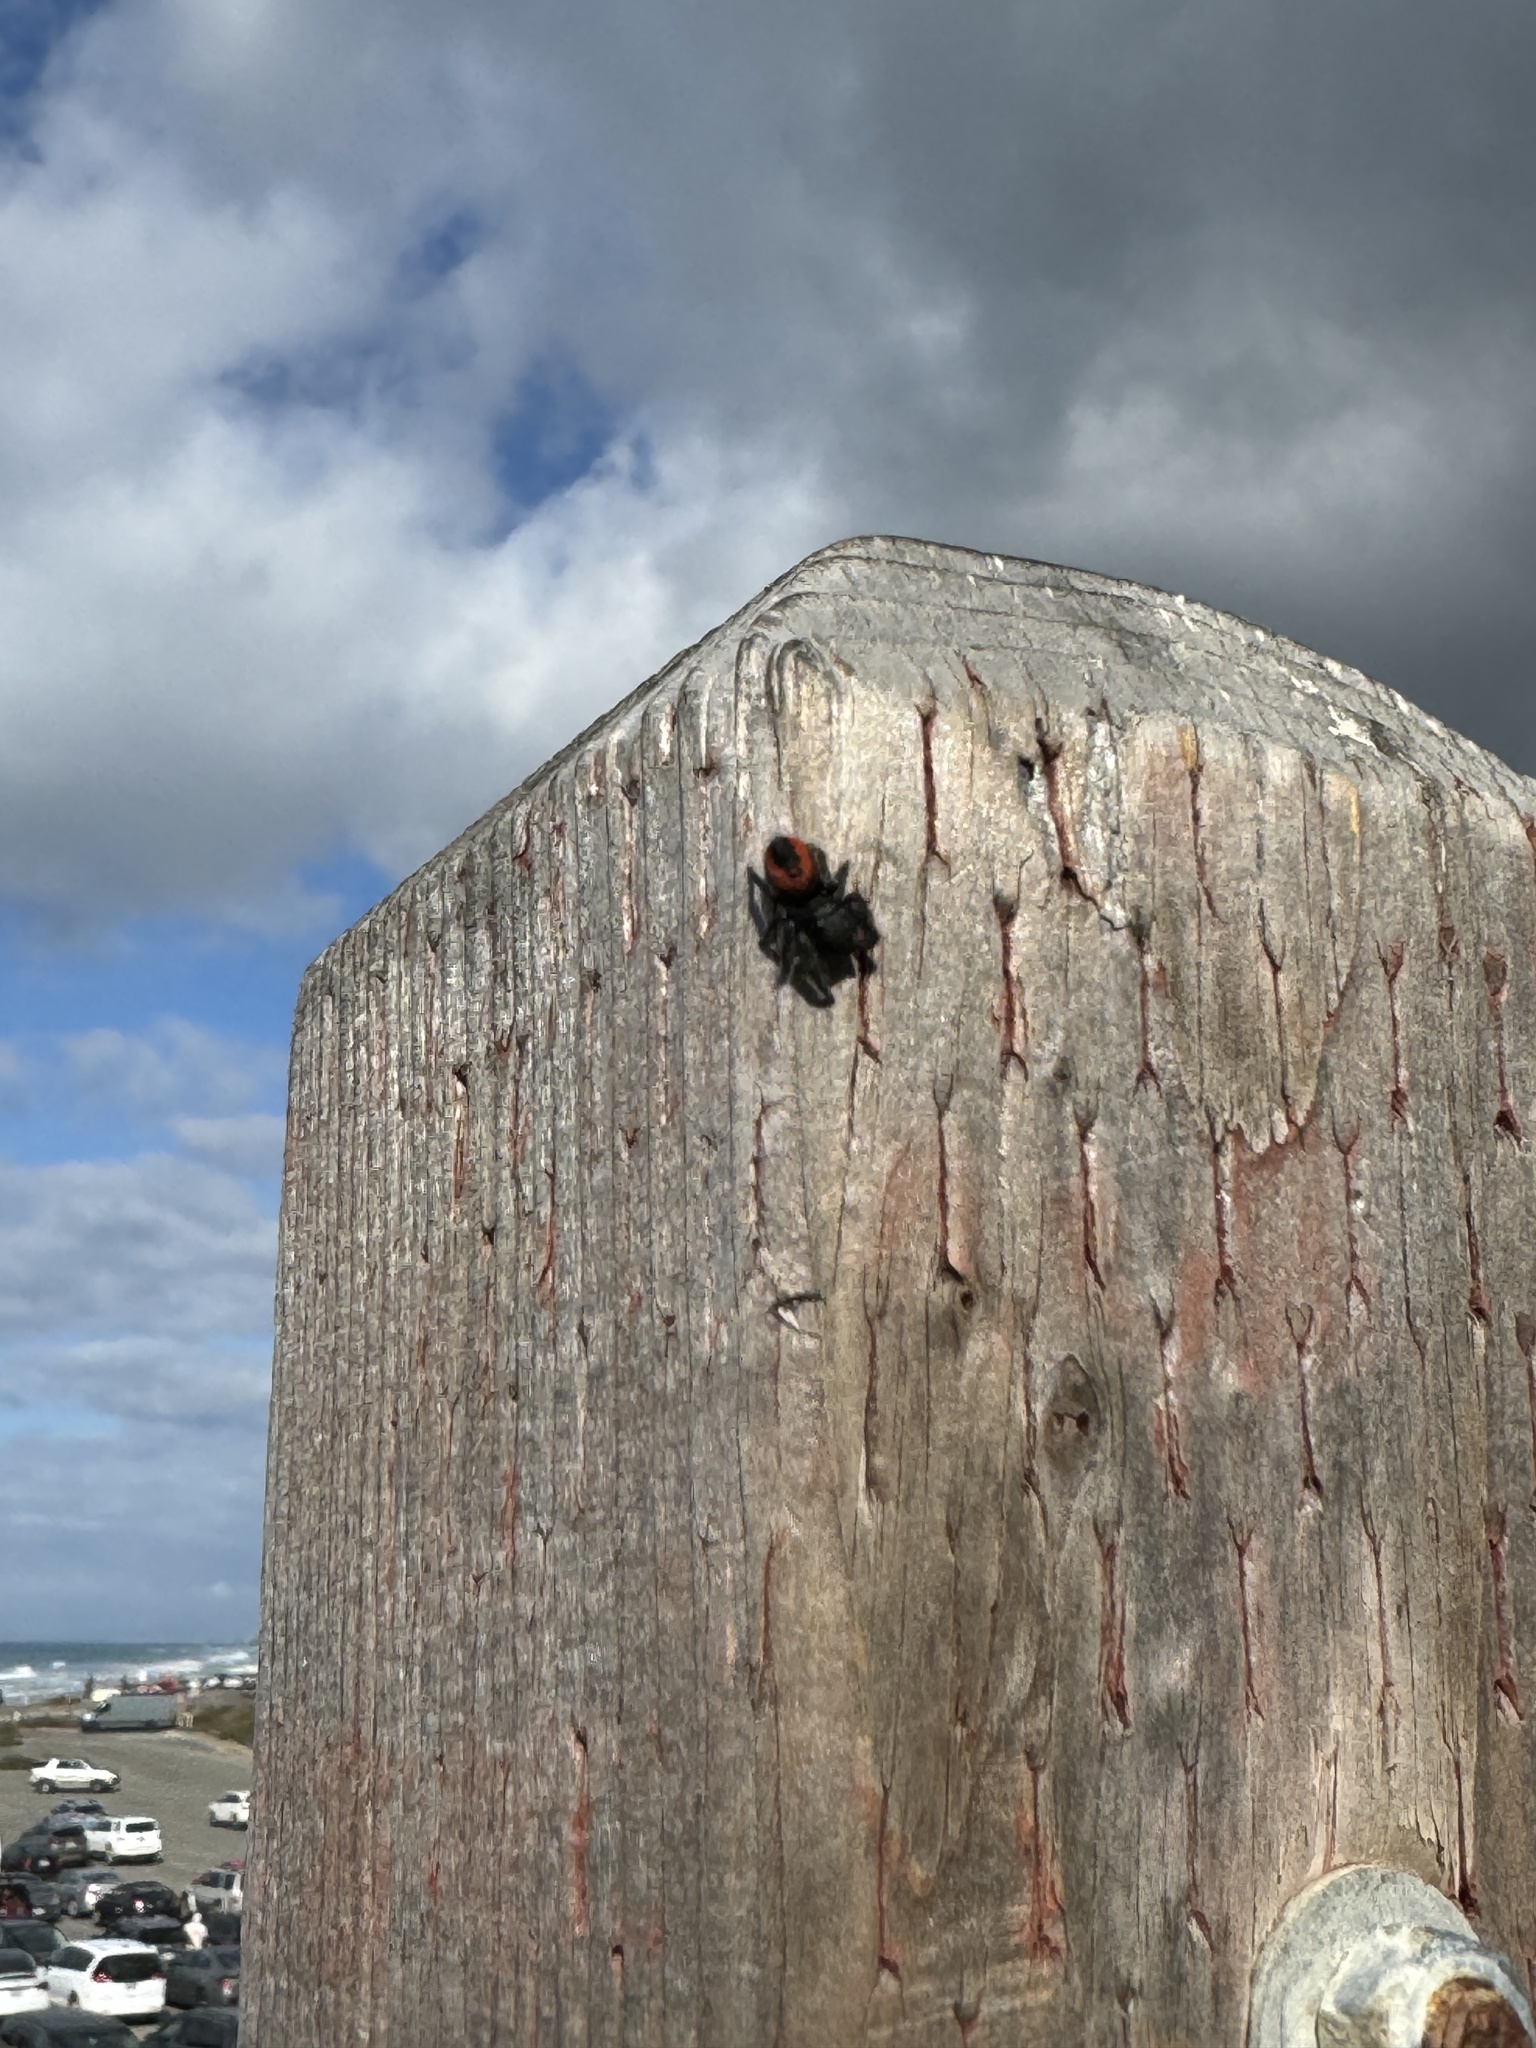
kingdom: Animalia
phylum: Arthropoda
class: Arachnida
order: Araneae
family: Salticidae
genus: Phidippus
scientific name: Phidippus johnsoni
